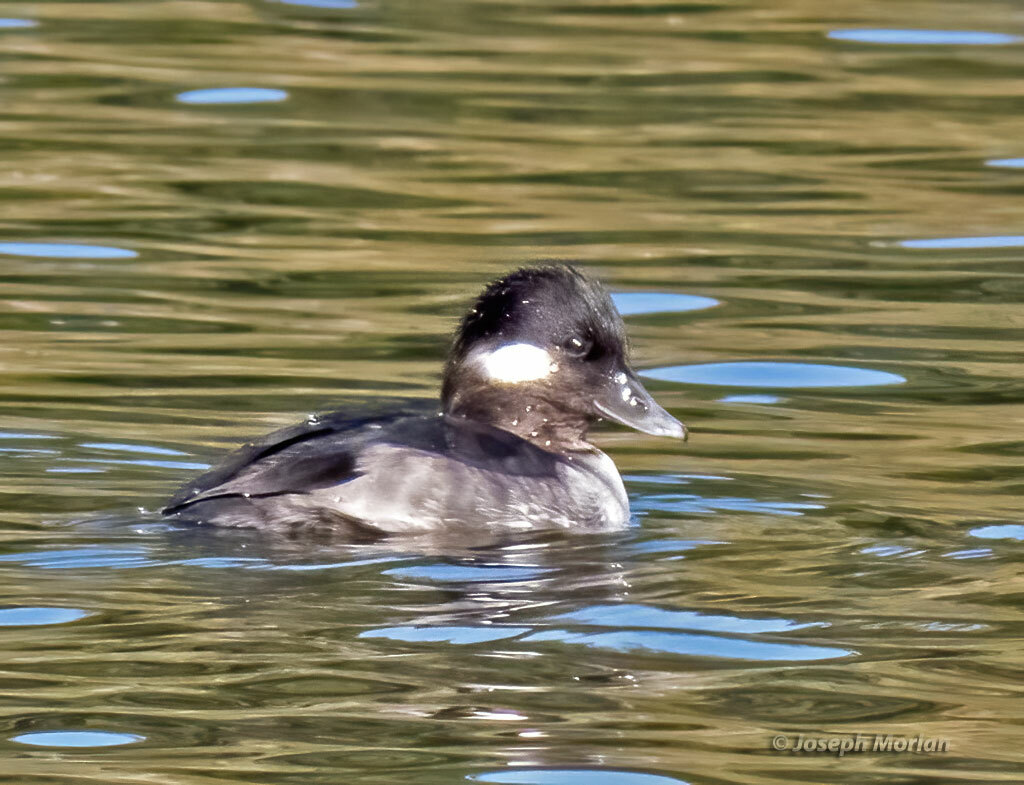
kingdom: Animalia
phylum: Chordata
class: Aves
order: Anseriformes
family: Anatidae
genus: Bucephala
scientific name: Bucephala albeola
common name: Bufflehead
